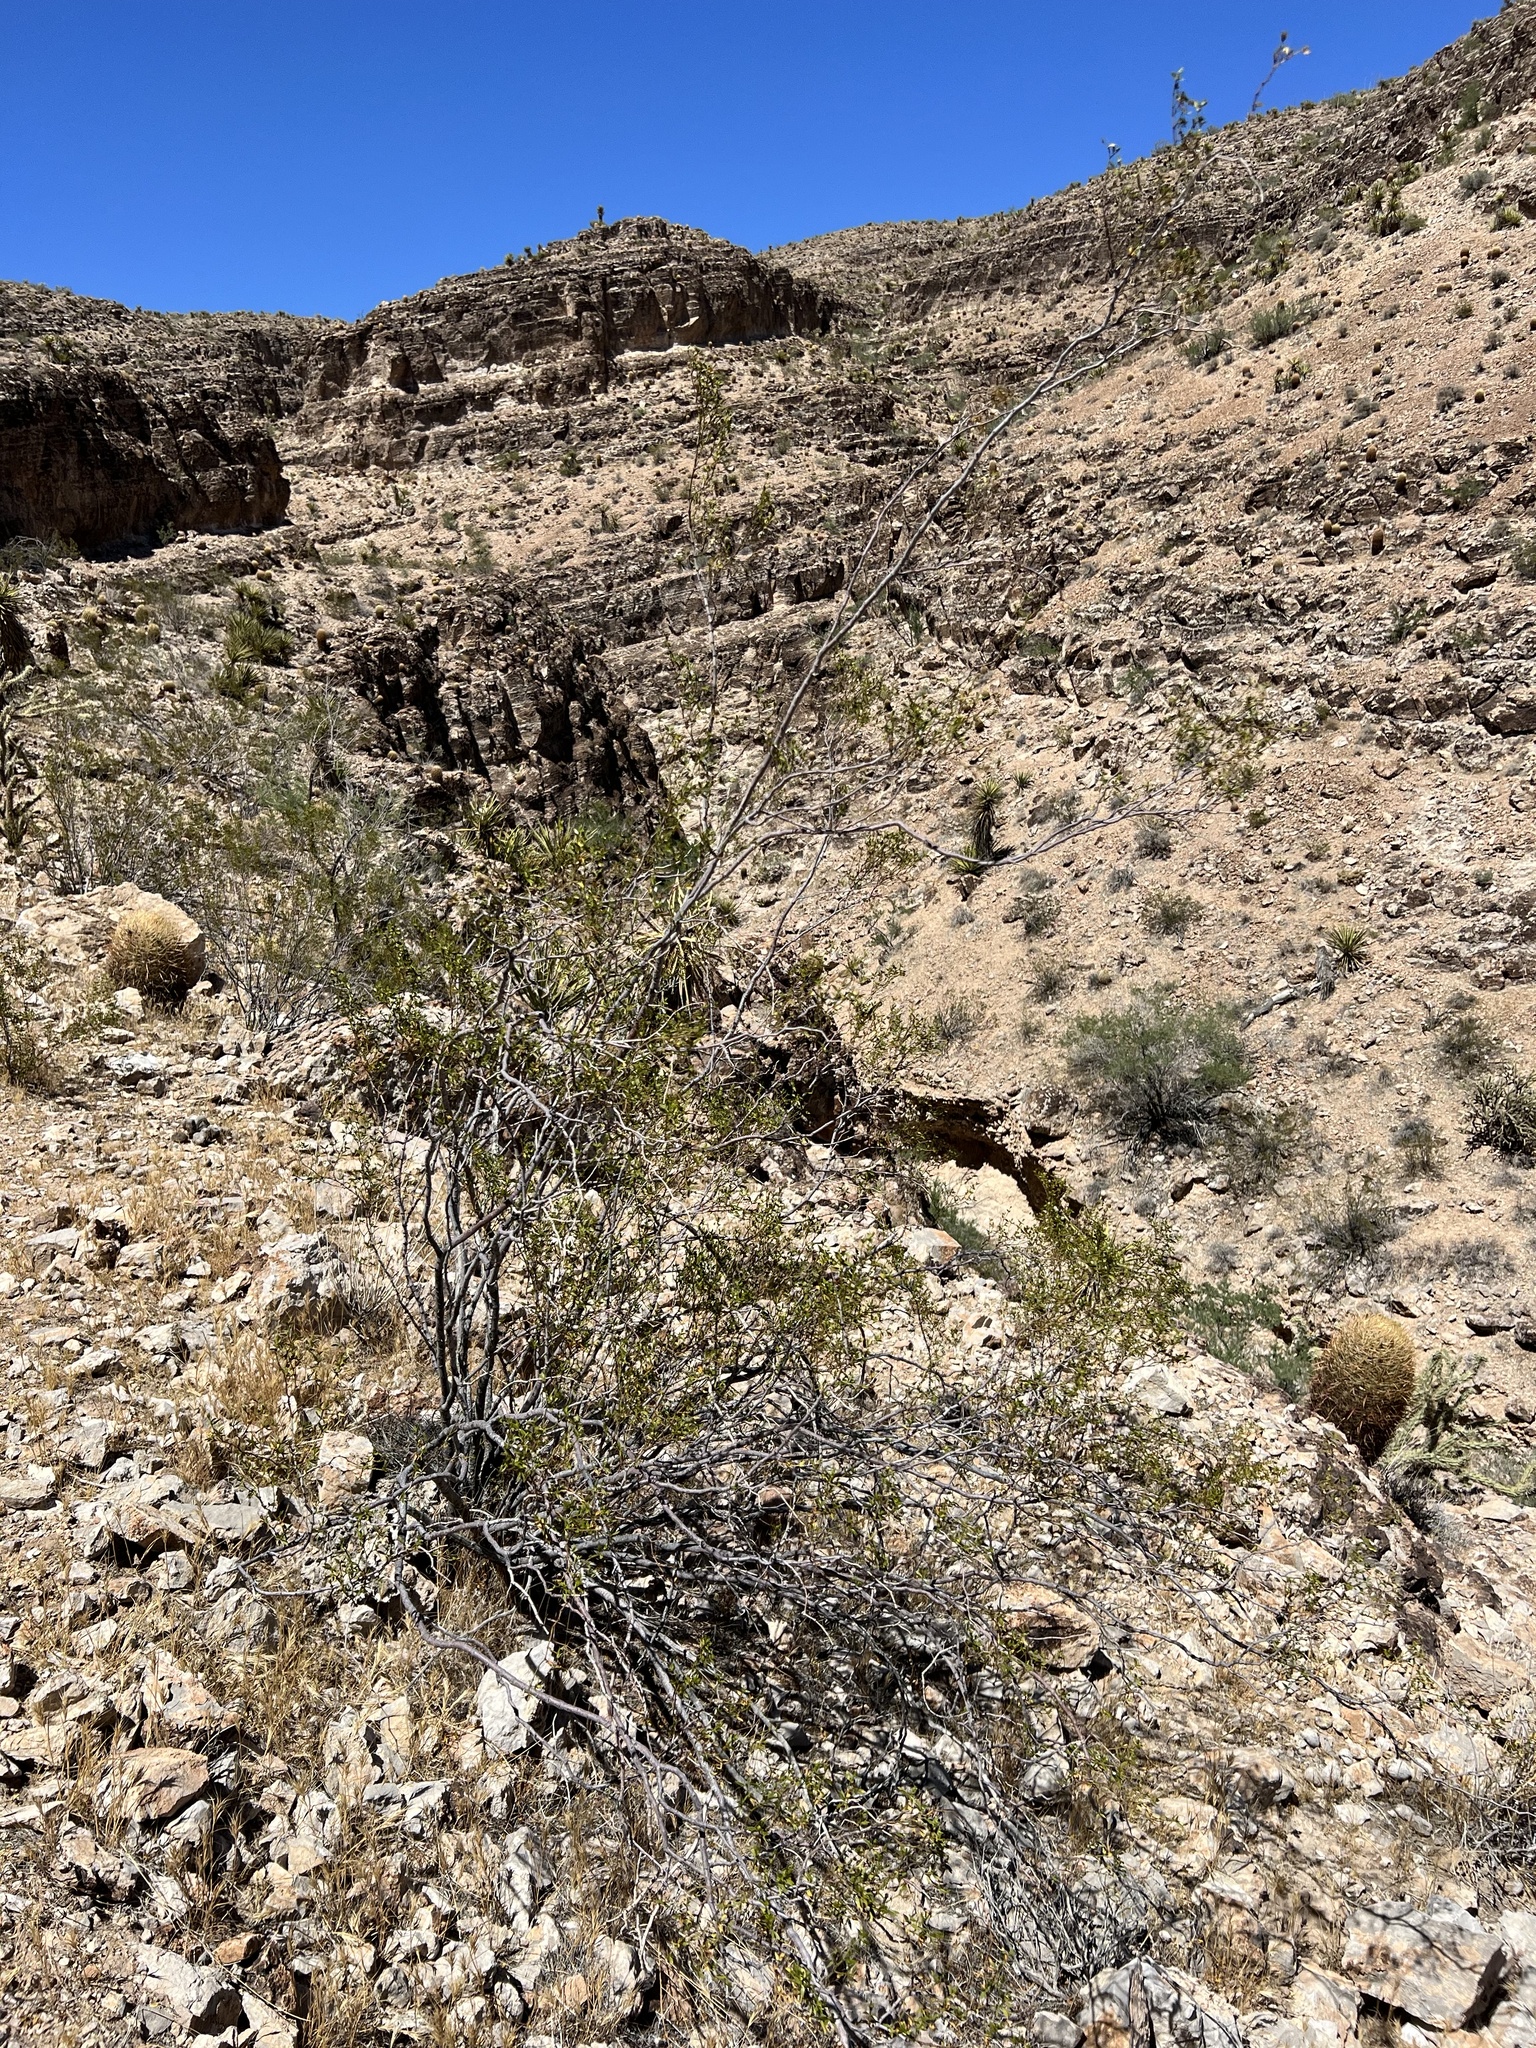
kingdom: Plantae
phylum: Tracheophyta
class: Magnoliopsida
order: Zygophyllales
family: Zygophyllaceae
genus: Larrea
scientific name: Larrea tridentata
